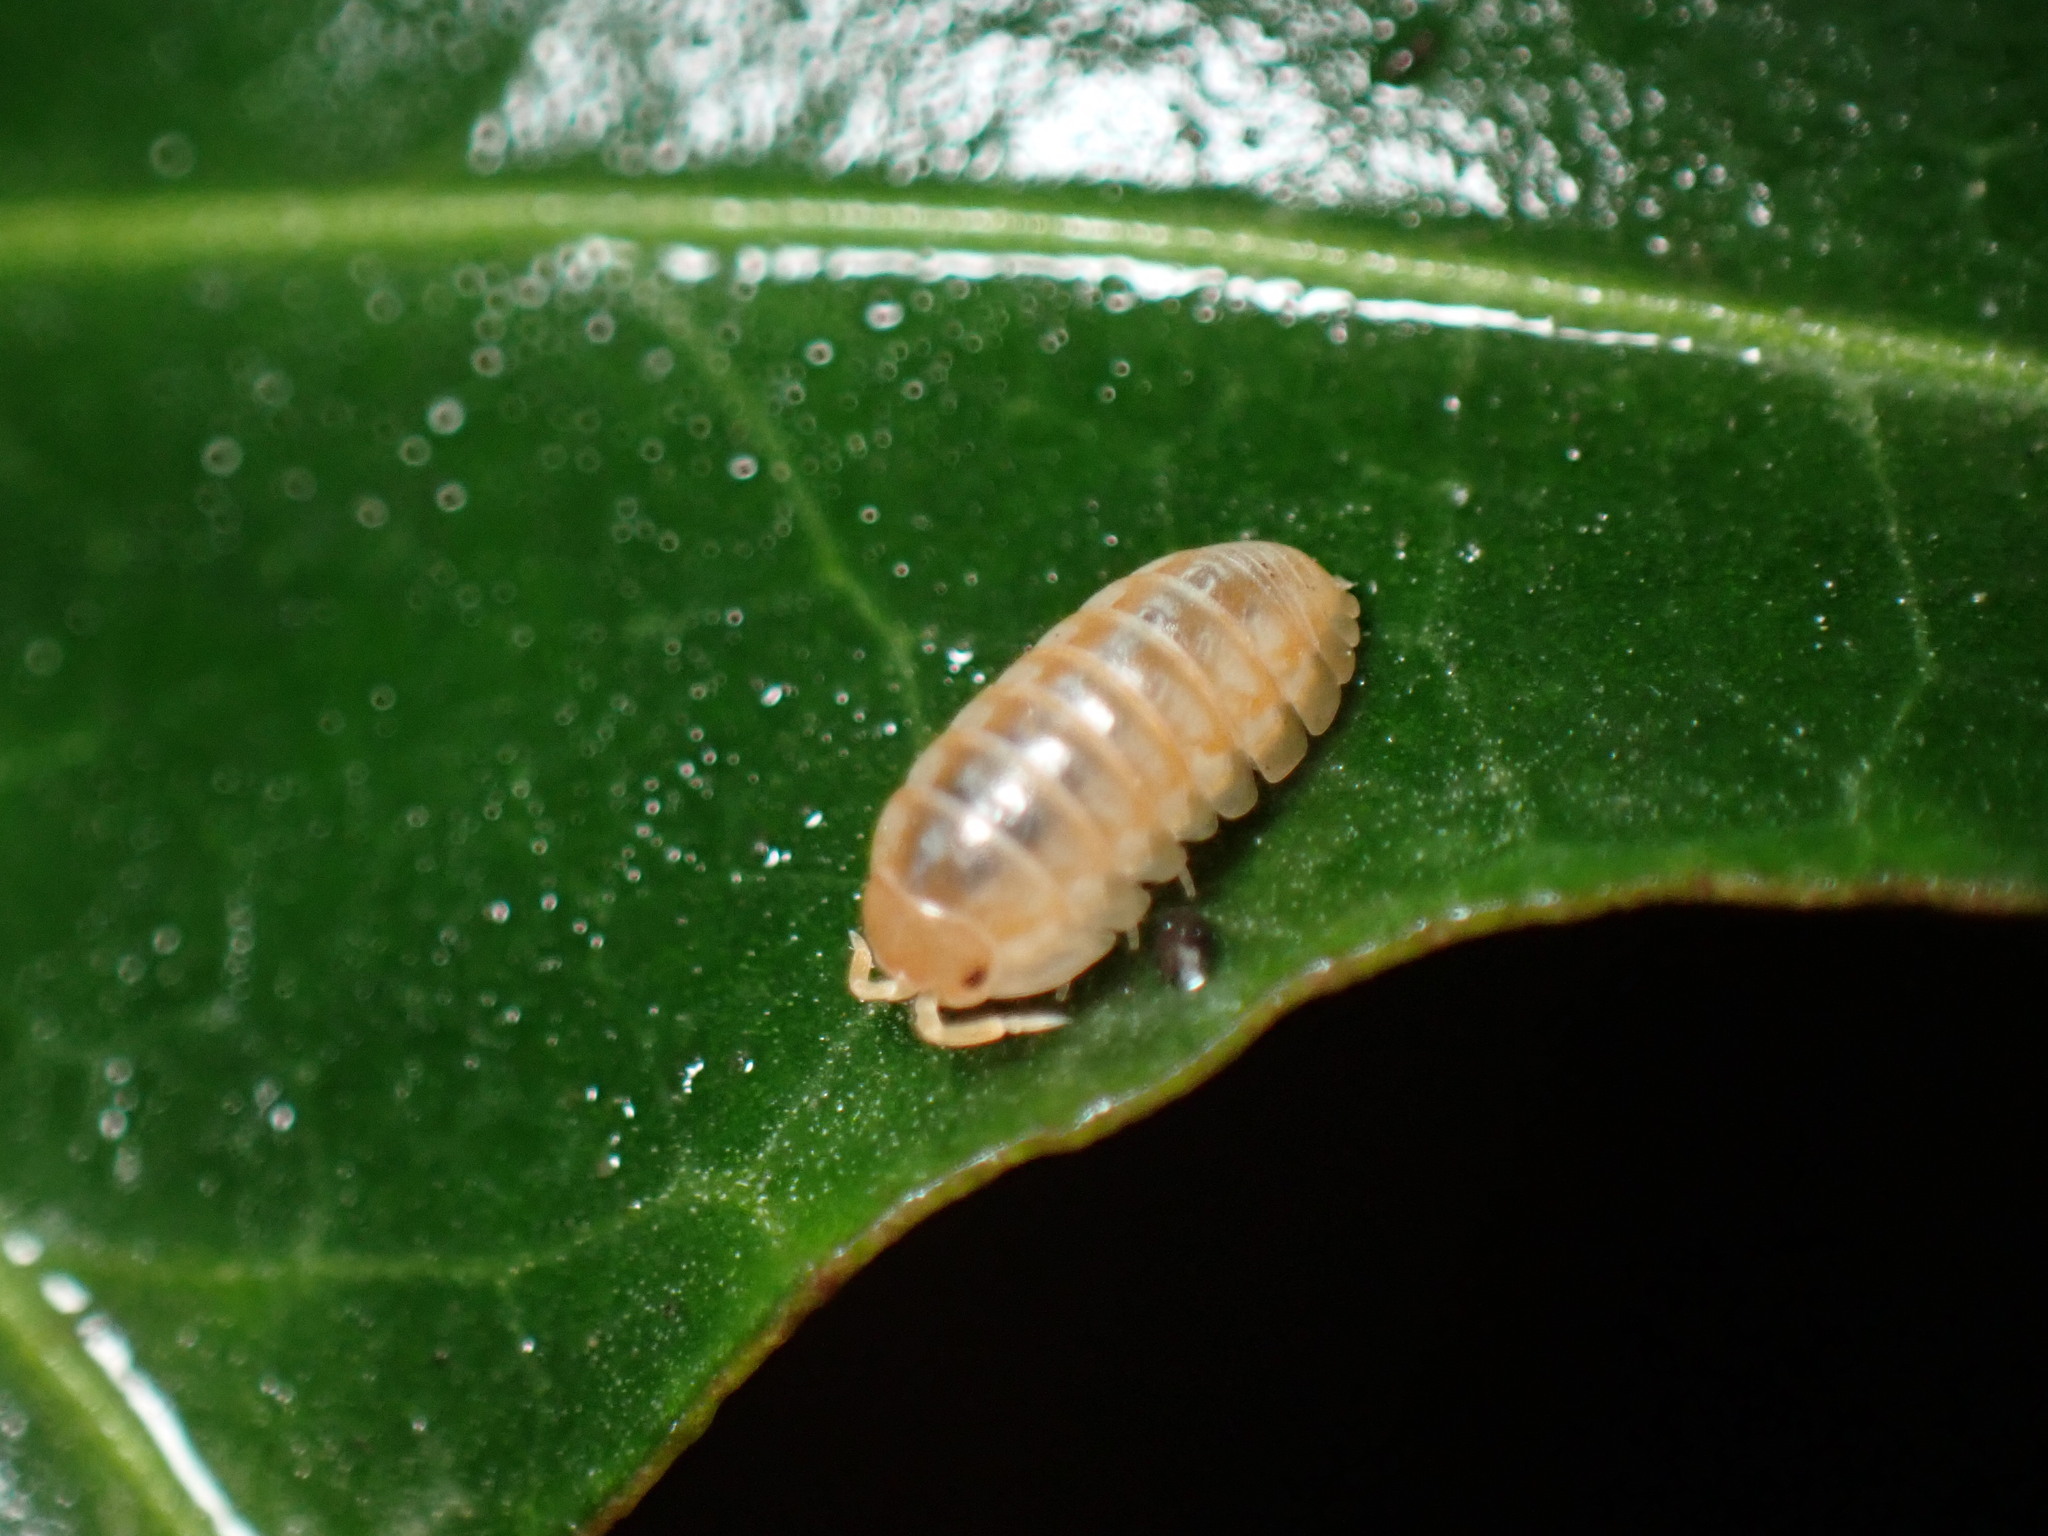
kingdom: Animalia
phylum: Arthropoda
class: Malacostraca
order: Isopoda
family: Armadillidiidae
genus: Armadillidium
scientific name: Armadillidium vulgare
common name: Common pill woodlouse
